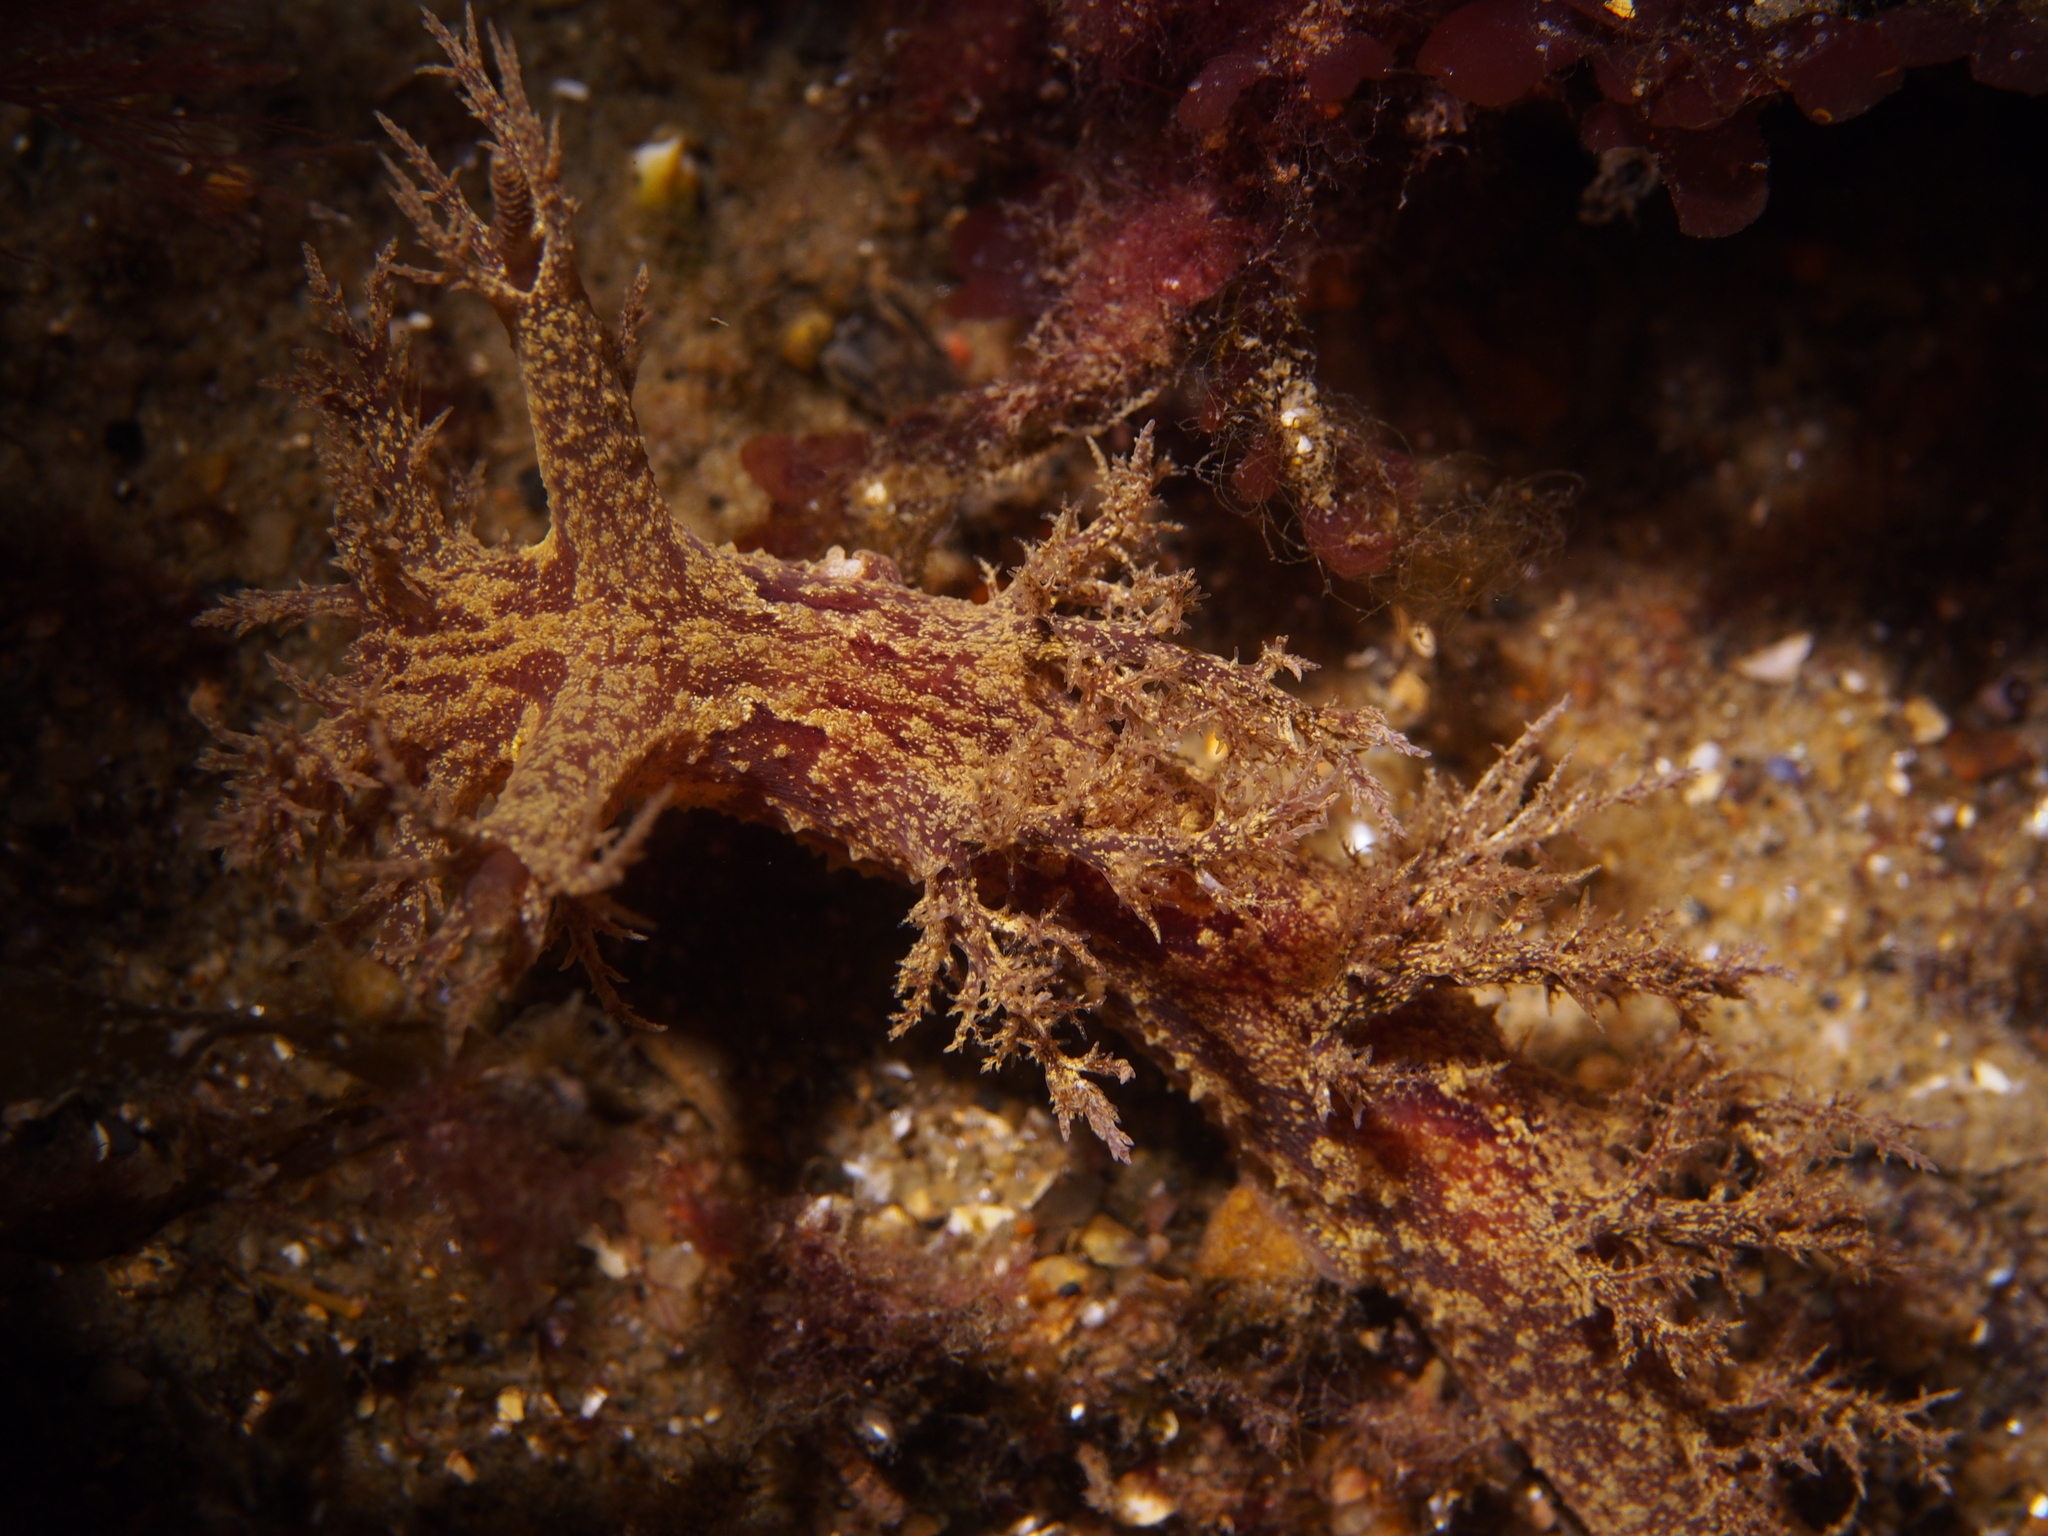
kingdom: Animalia
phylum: Mollusca
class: Gastropoda
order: Nudibranchia
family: Dendronotidae
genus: Dendronotus
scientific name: Dendronotus europaeus
